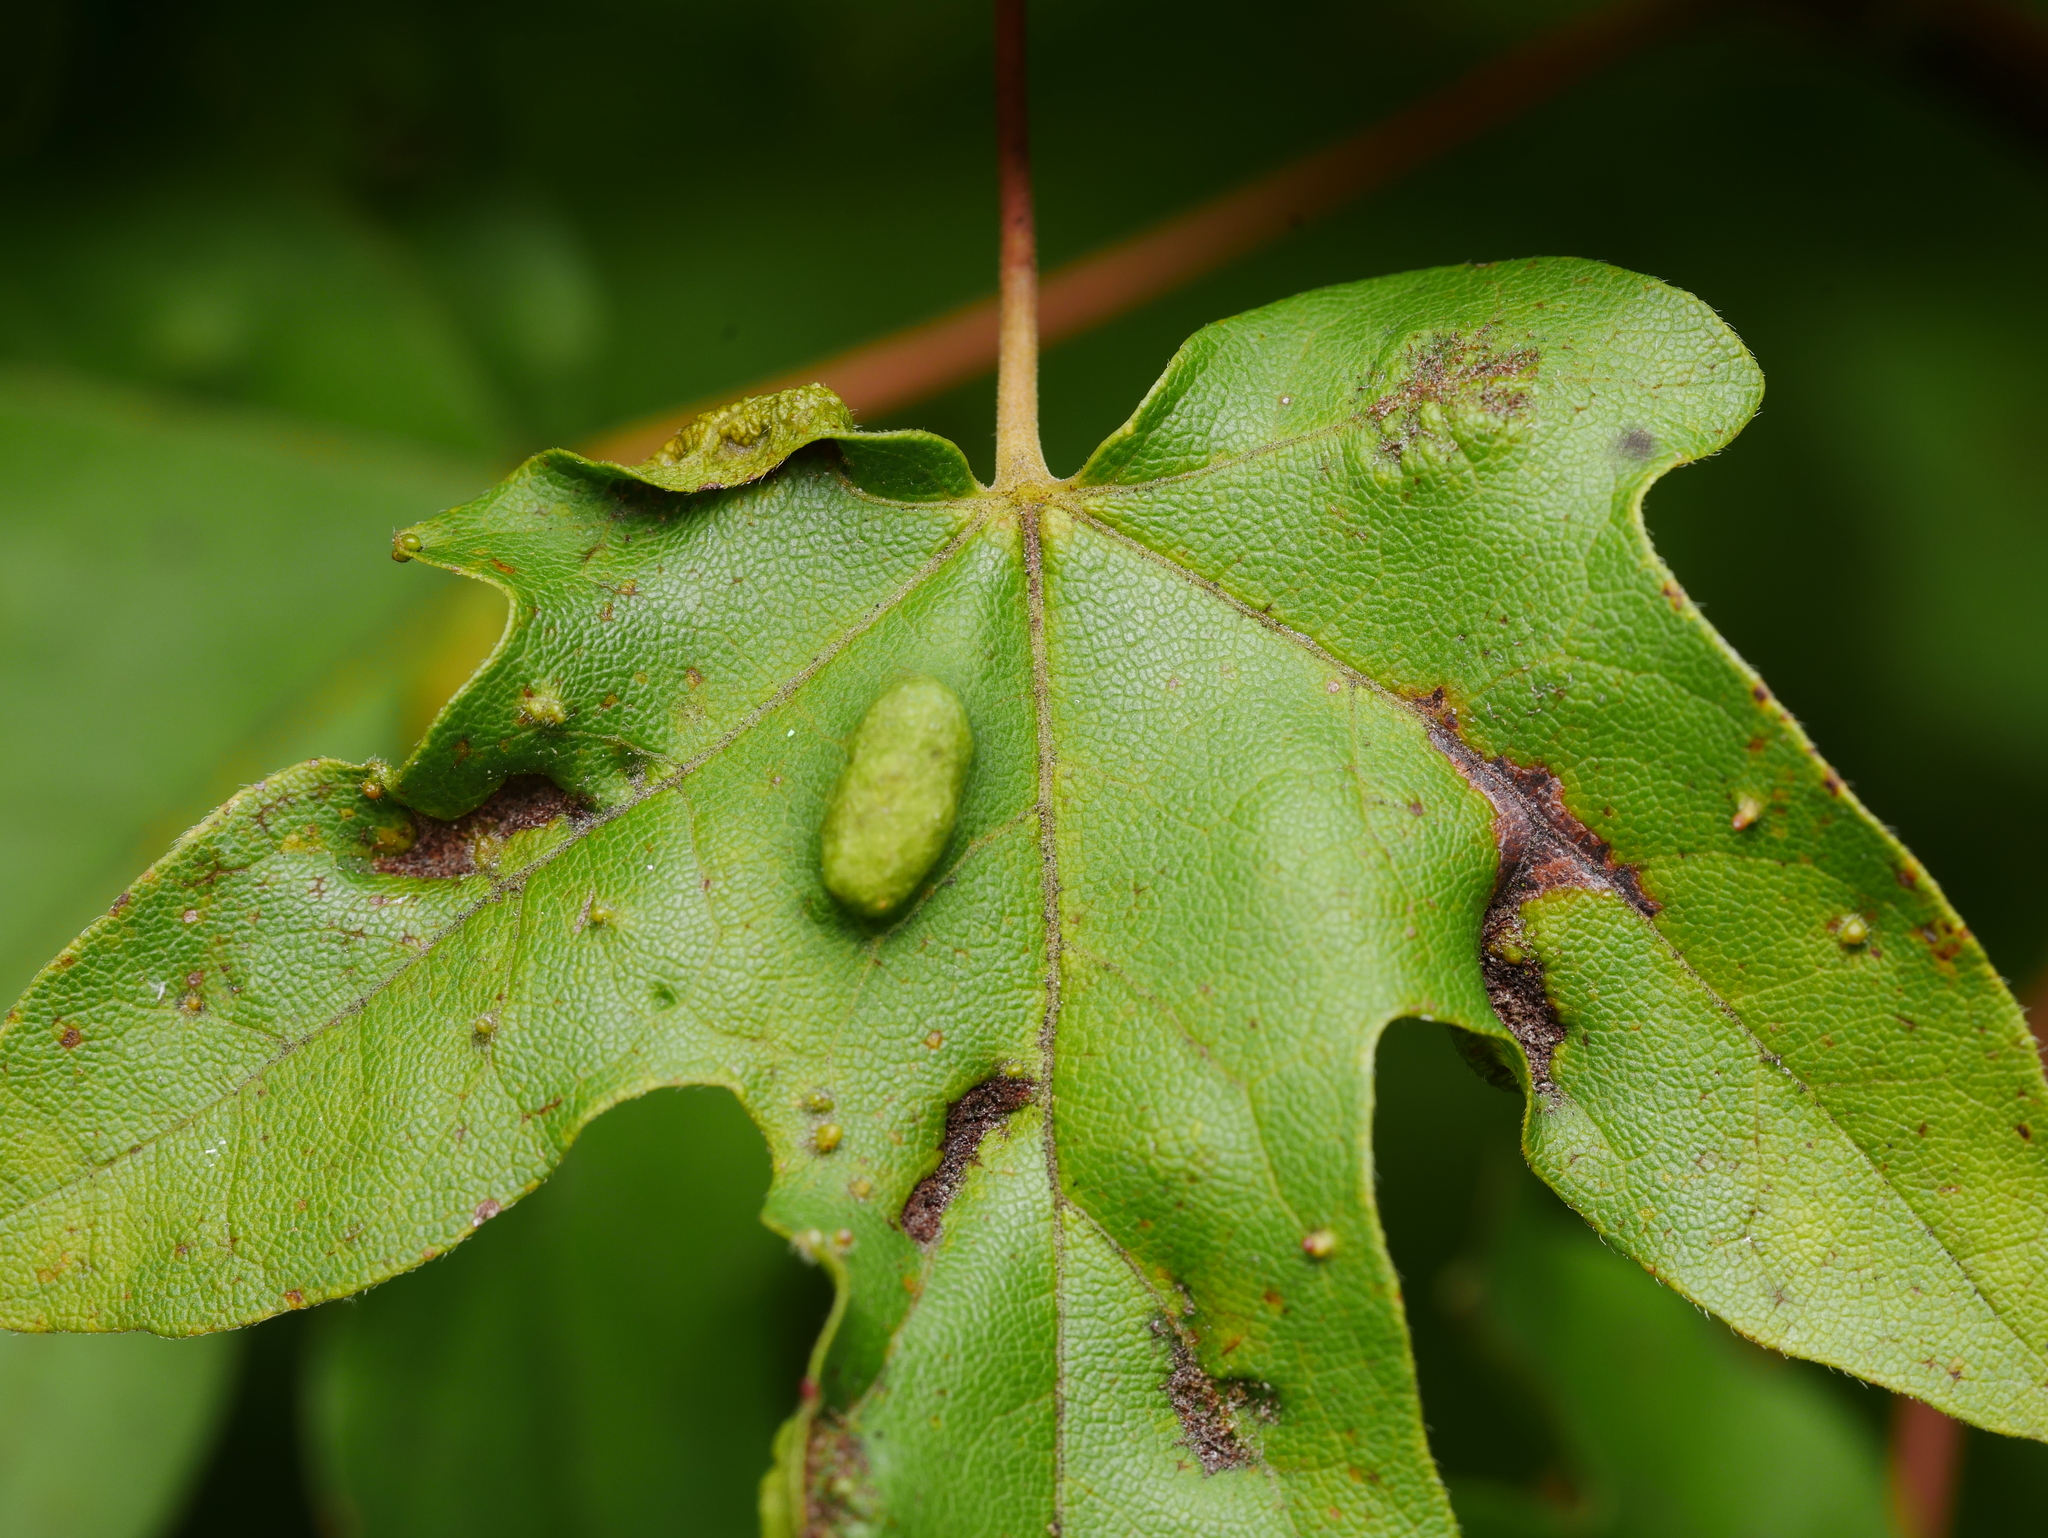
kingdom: Animalia
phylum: Arthropoda
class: Arachnida
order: Trombidiformes
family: Eriophyidae
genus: Aceria
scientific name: Aceria carinifex
